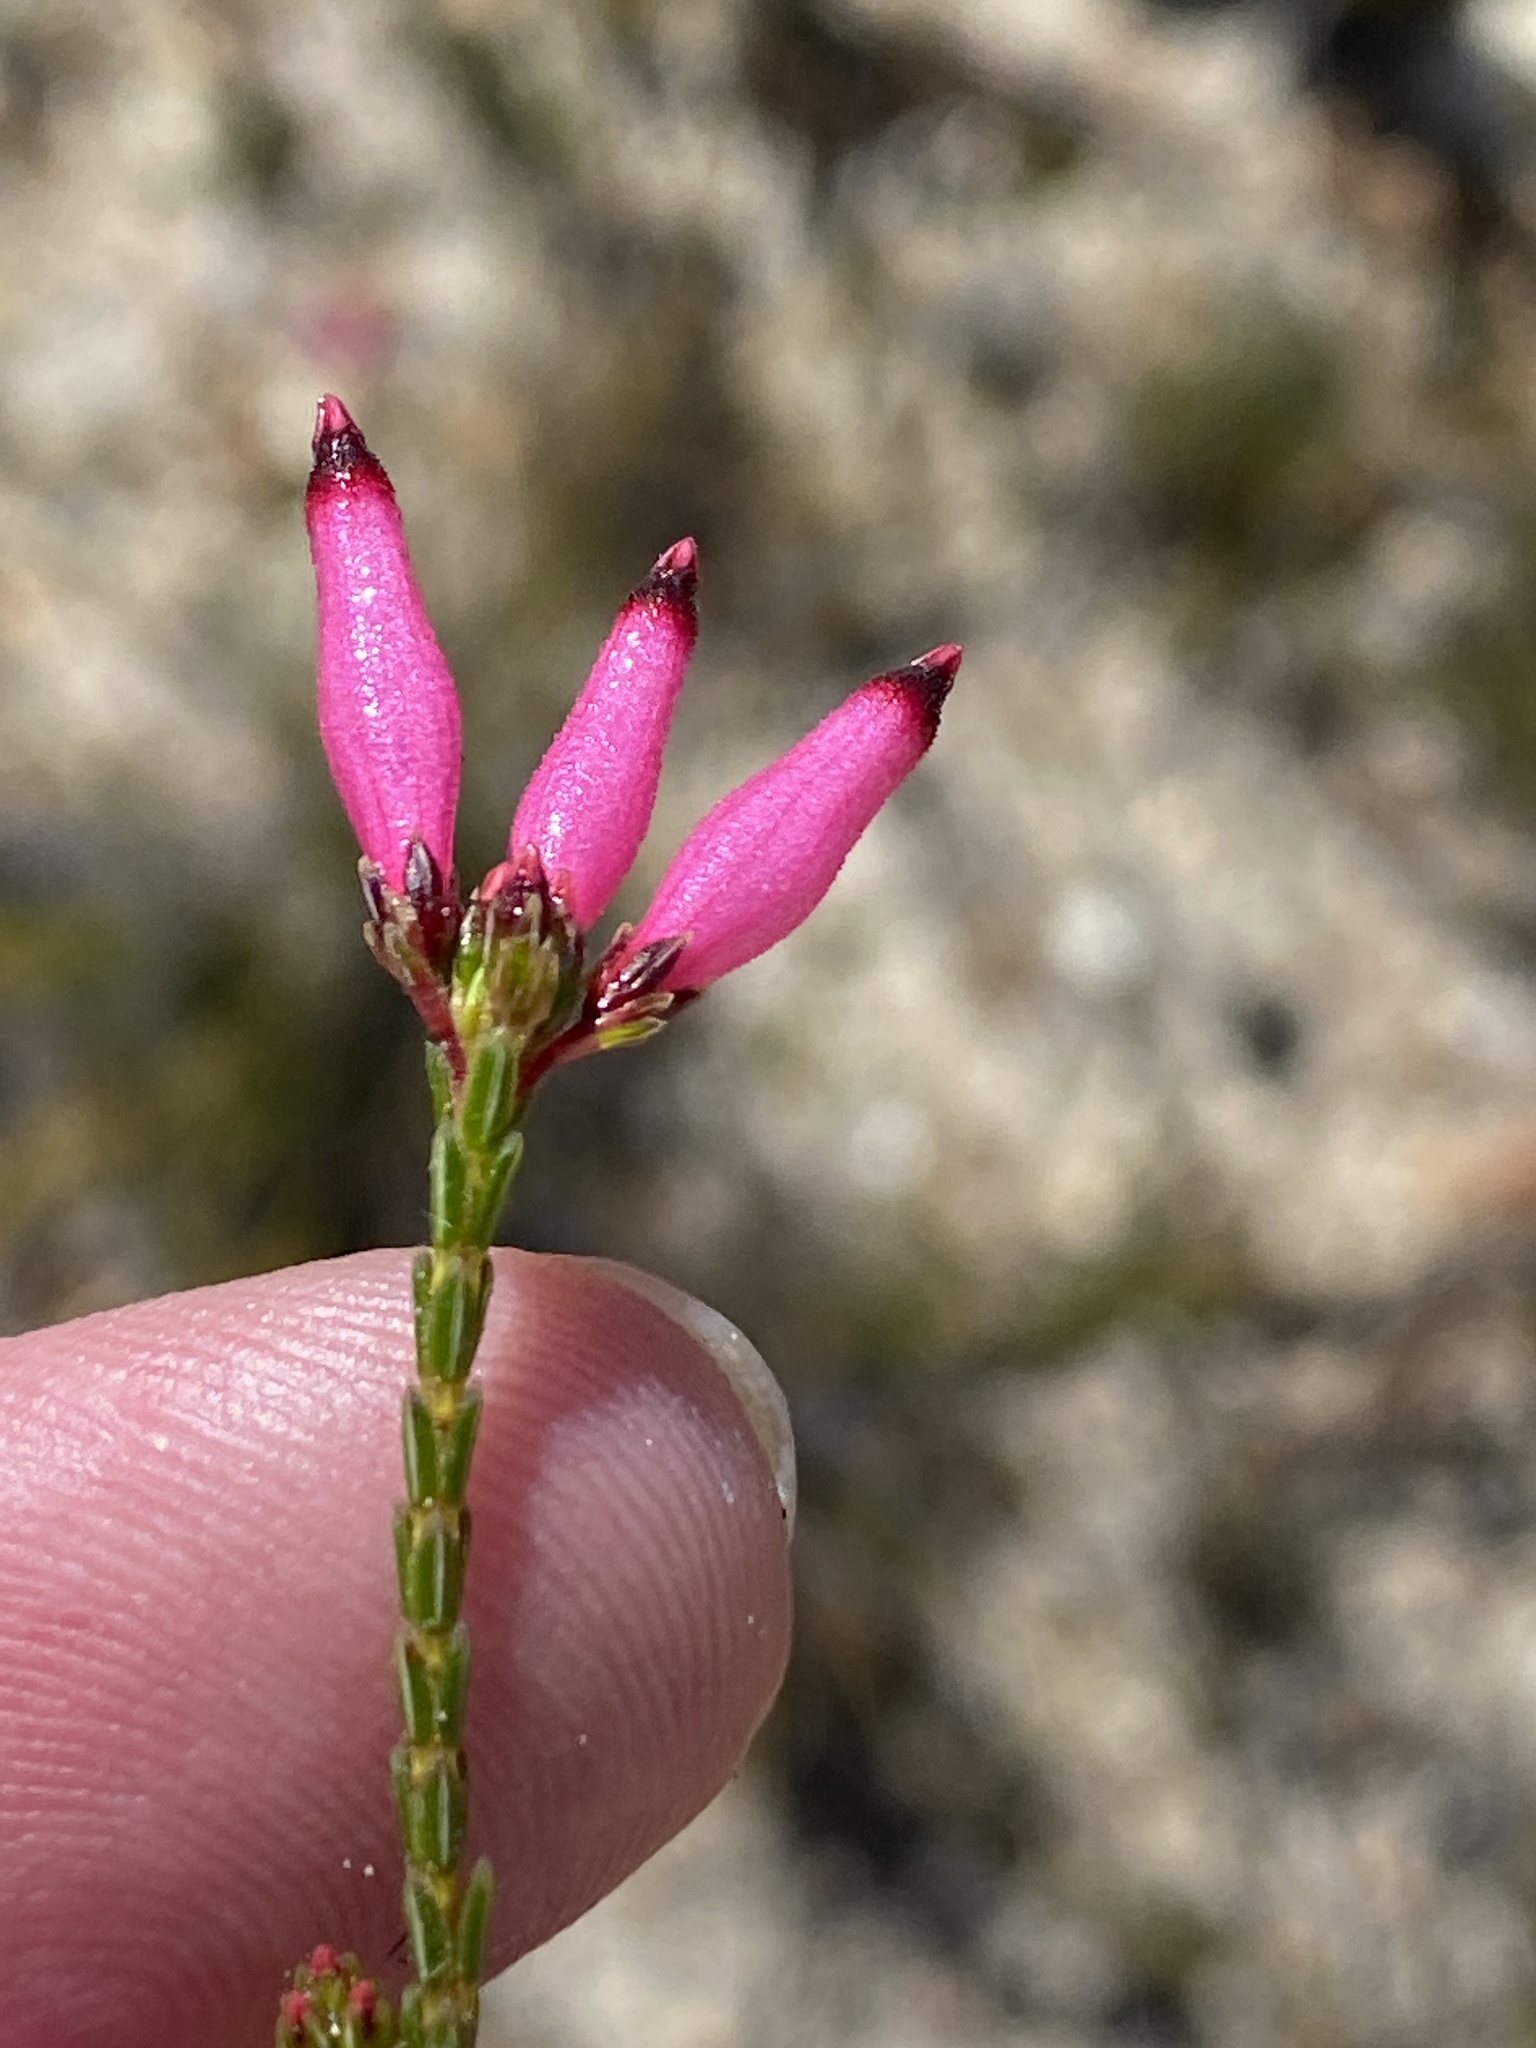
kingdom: Plantae
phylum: Tracheophyta
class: Magnoliopsida
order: Ericales
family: Ericaceae
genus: Erica
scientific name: Erica curvifolia
